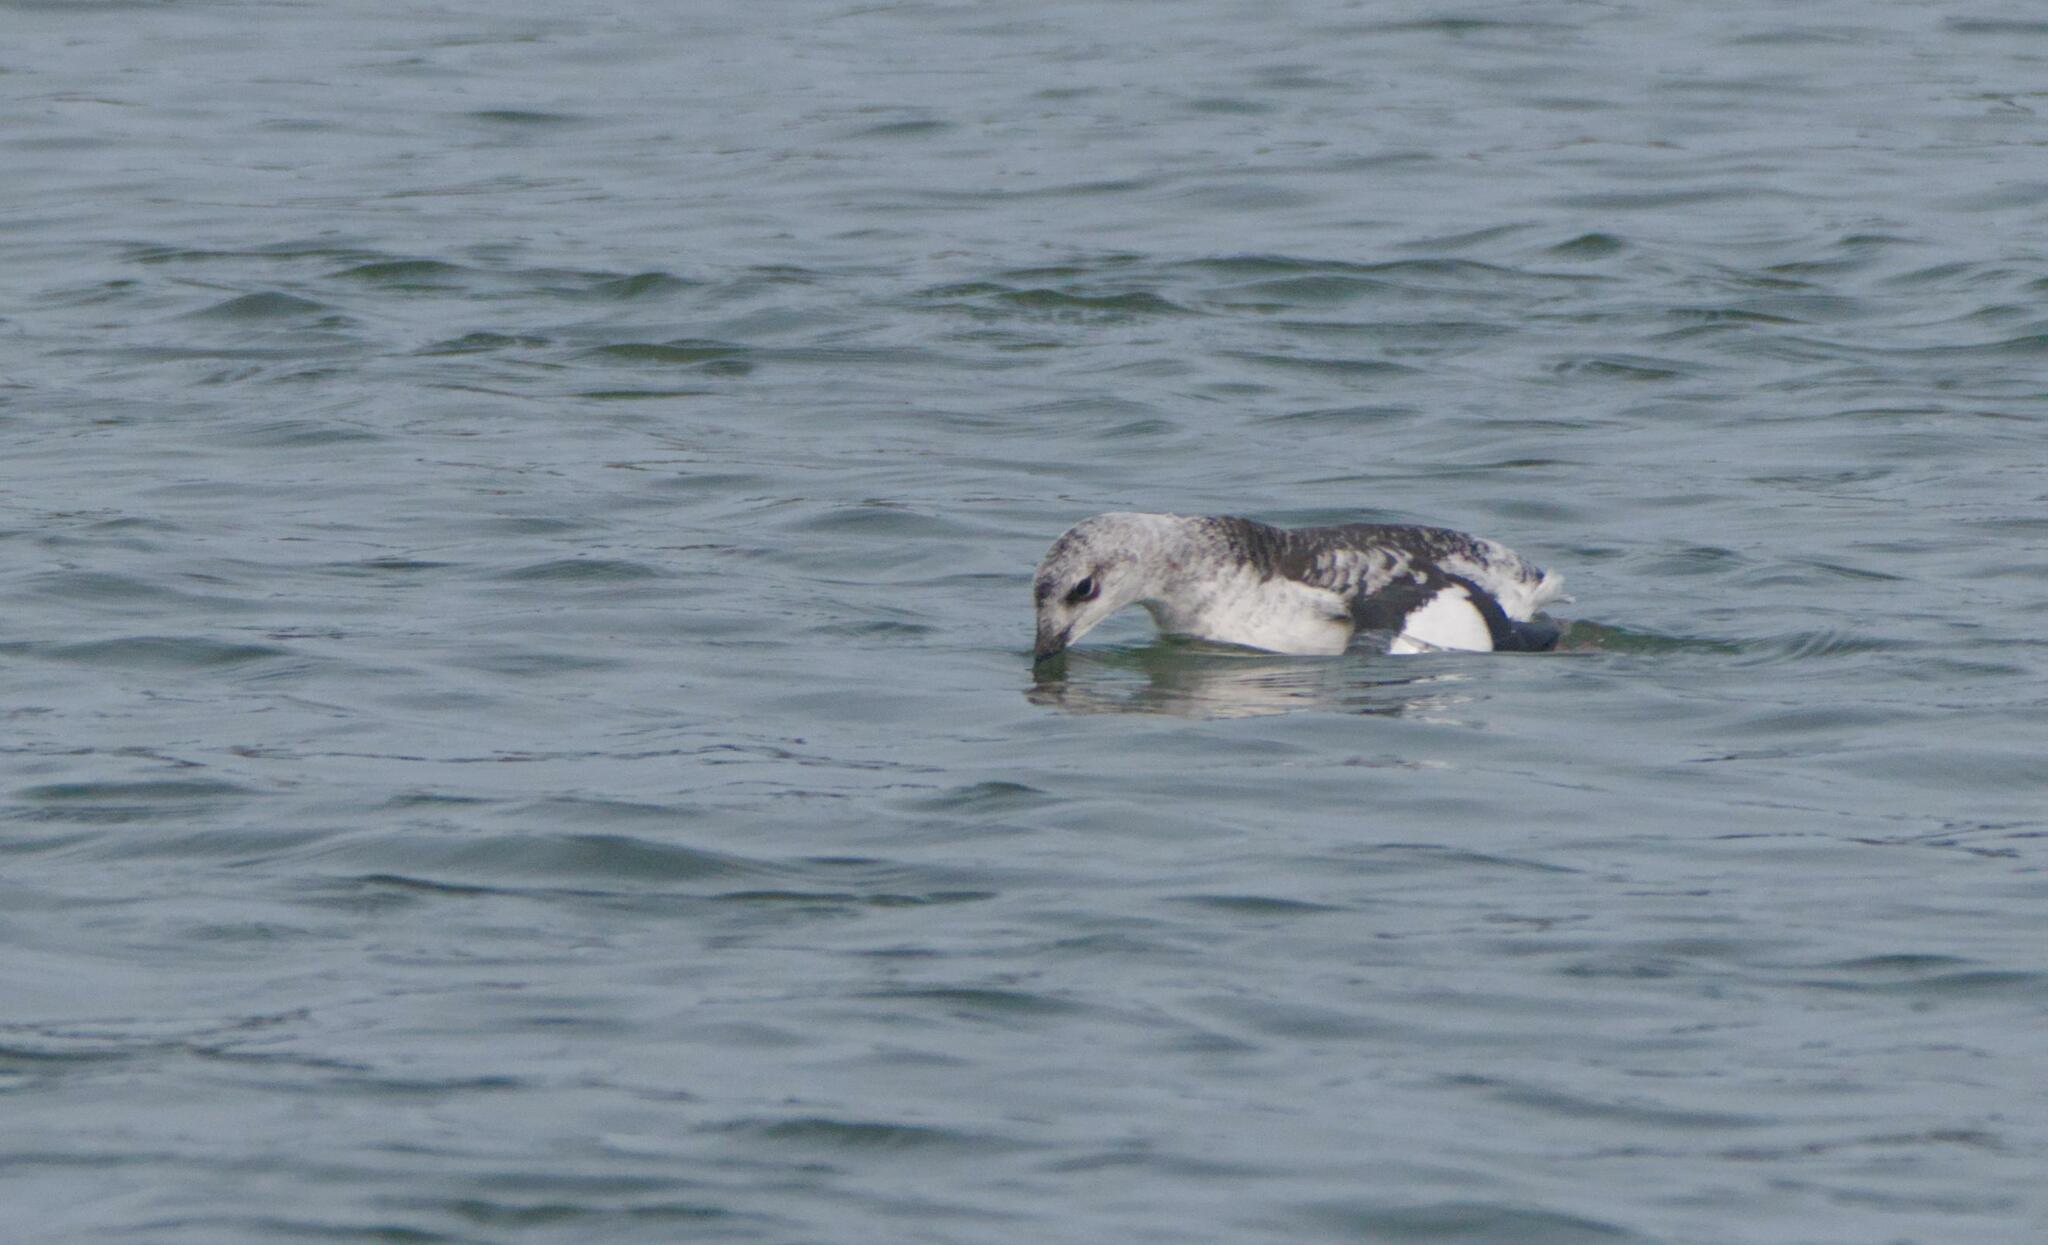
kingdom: Animalia
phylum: Chordata
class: Aves
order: Charadriiformes
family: Alcidae
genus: Cepphus
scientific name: Cepphus grylle
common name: Black guillemot
